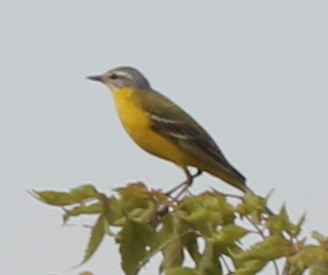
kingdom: Animalia
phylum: Chordata
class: Aves
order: Passeriformes
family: Motacillidae
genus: Motacilla
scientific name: Motacilla flava
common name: Western yellow wagtail
